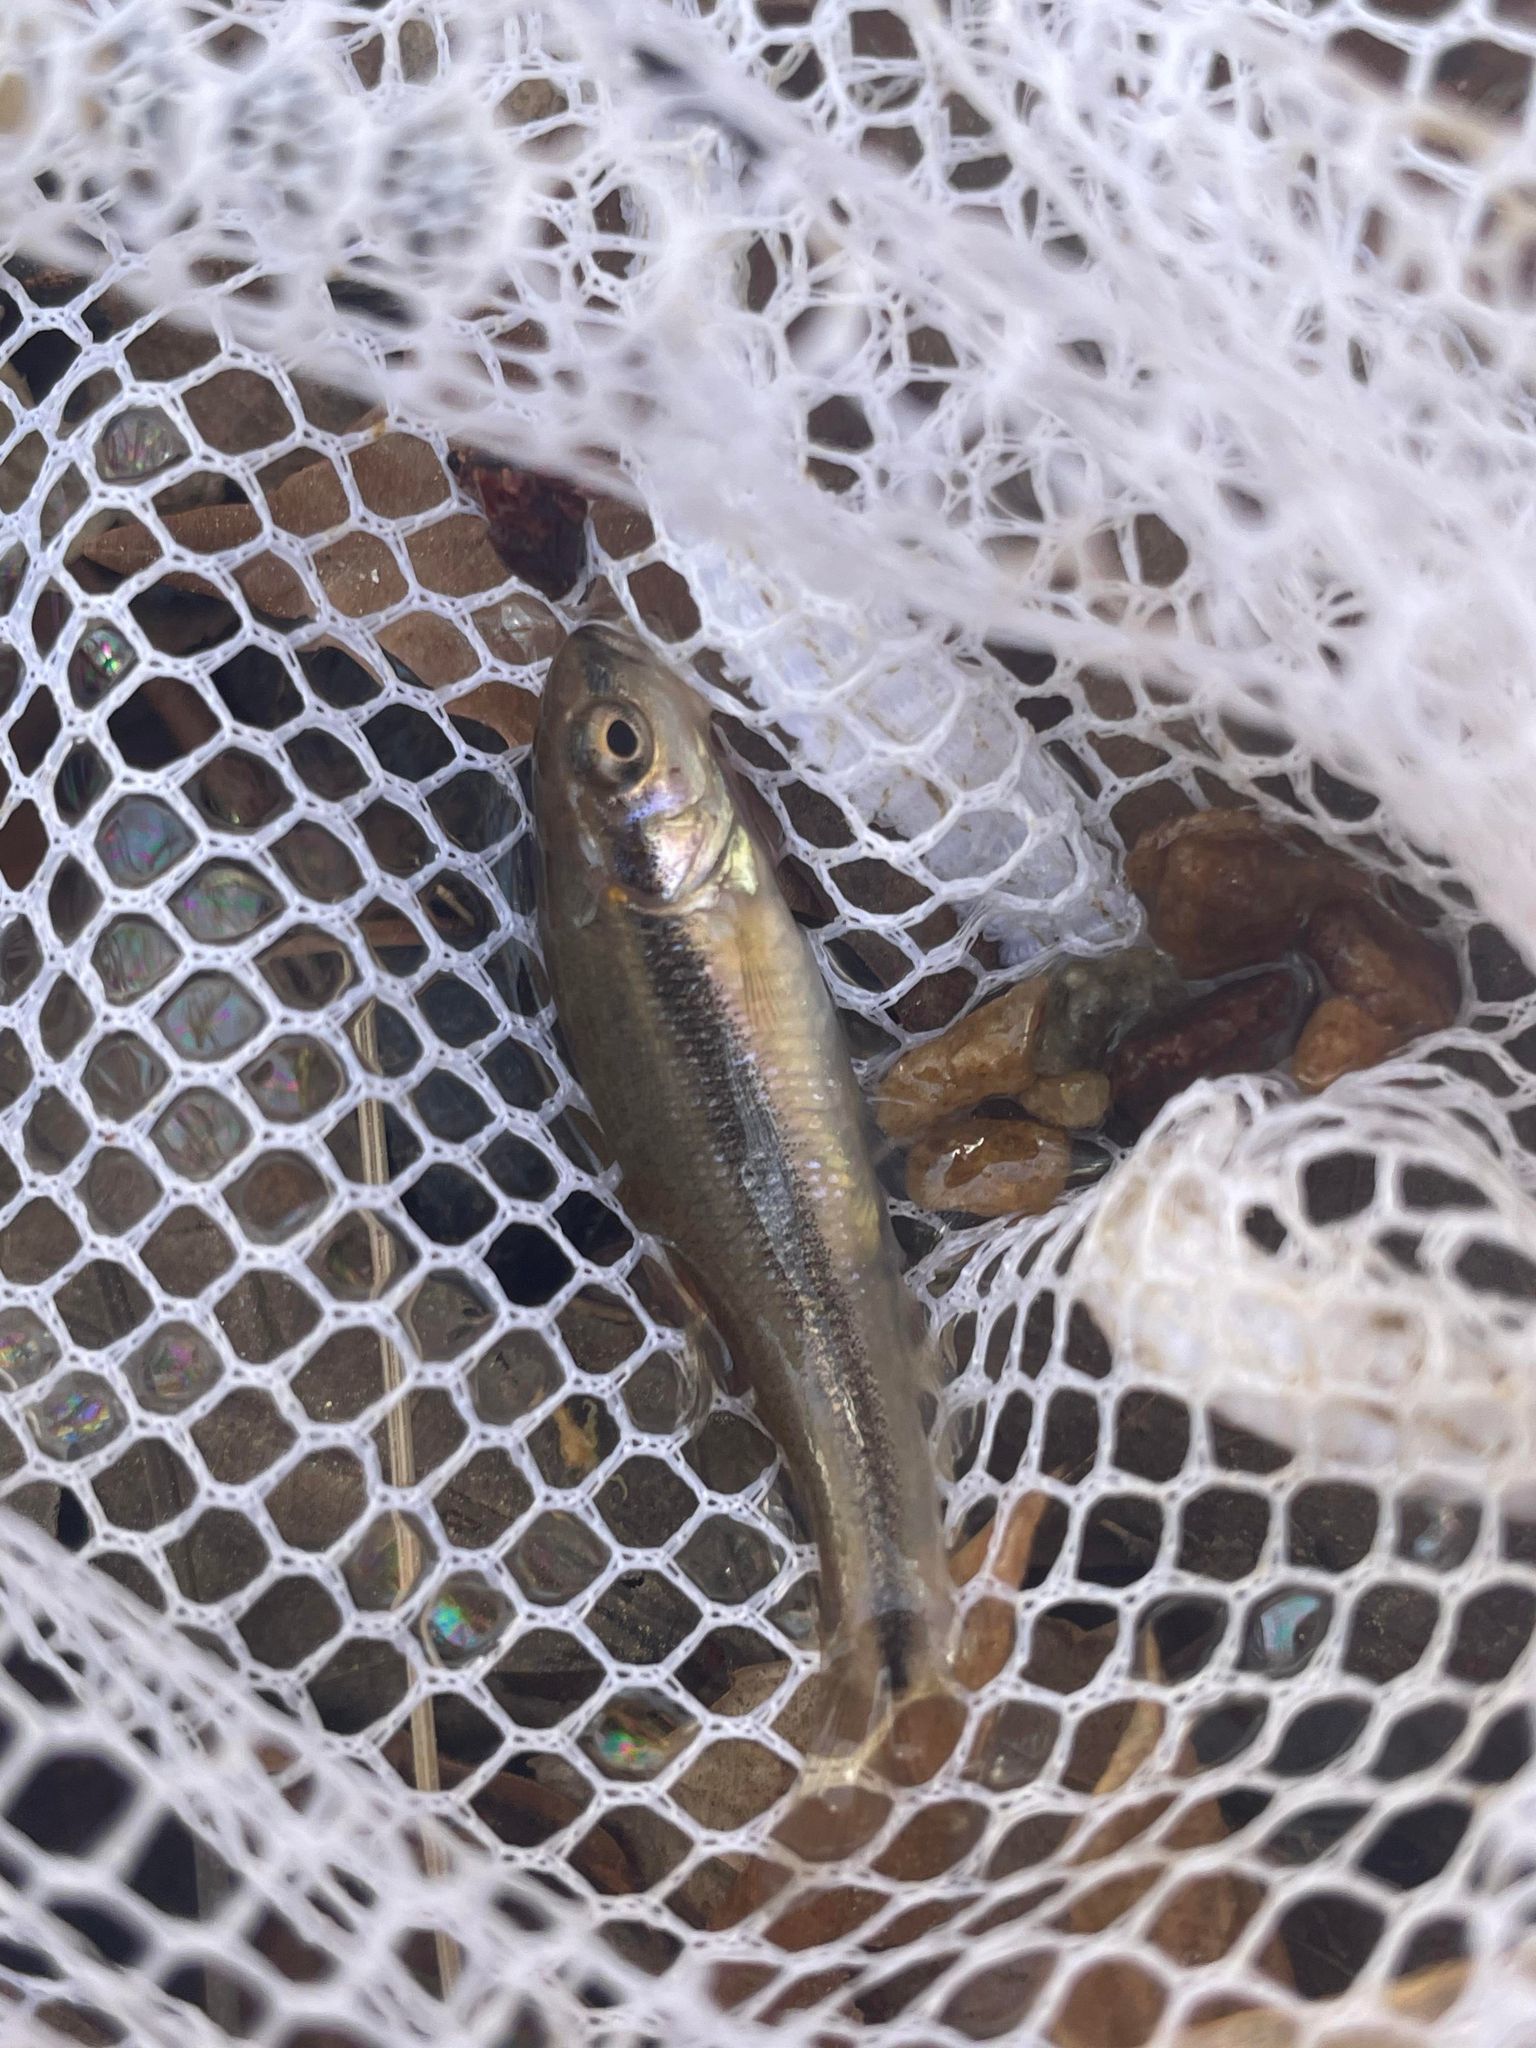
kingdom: Animalia
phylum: Chordata
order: Cypriniformes
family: Cyprinidae
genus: Semotilus
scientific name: Semotilus atromaculatus
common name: Creek chub
